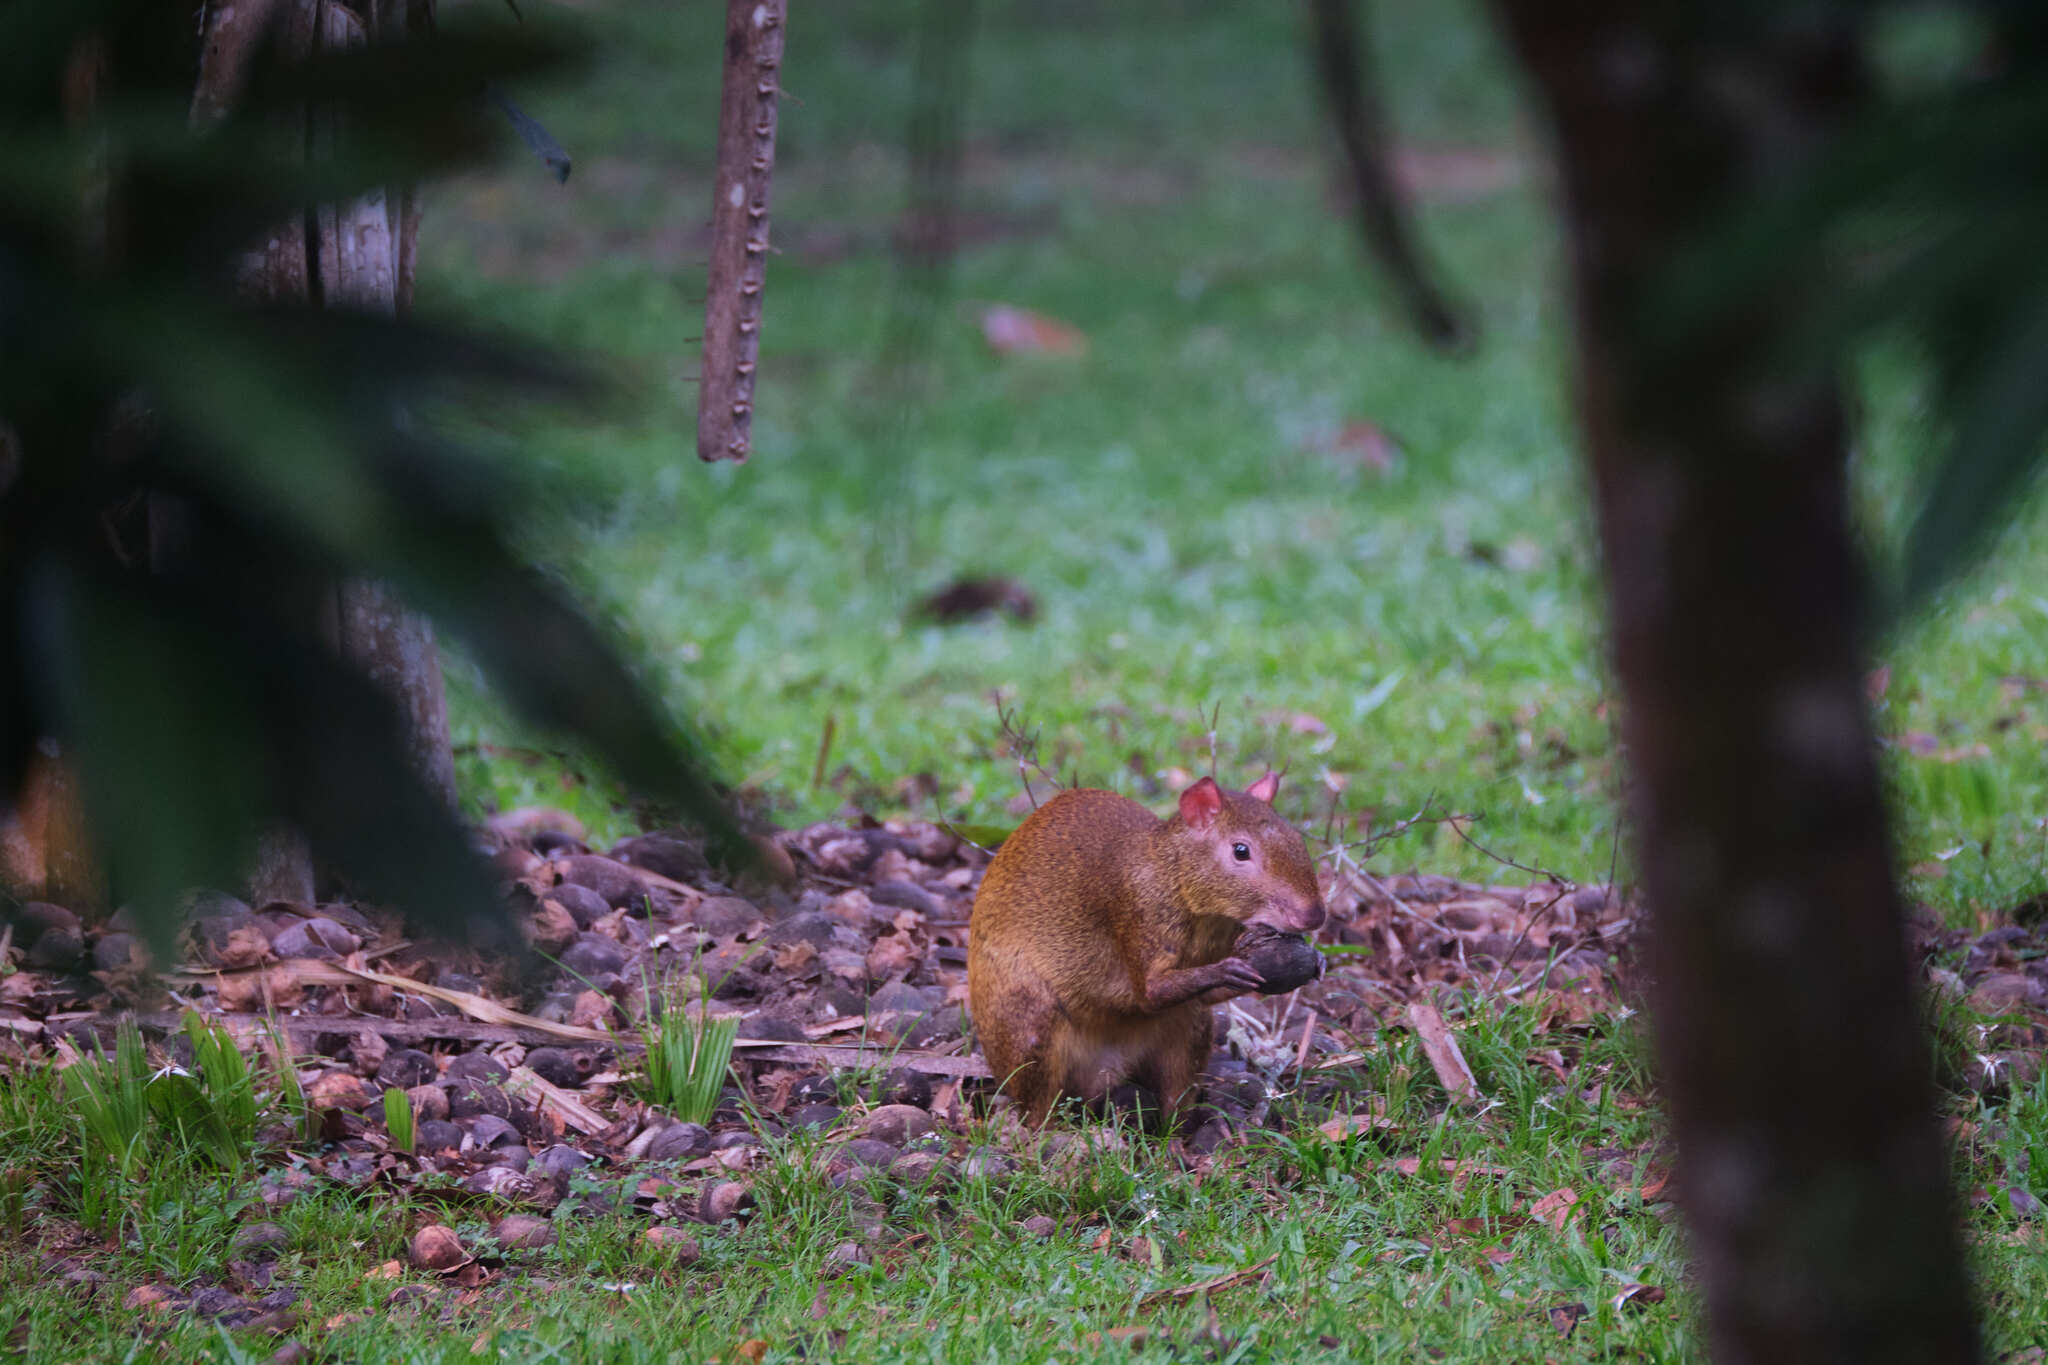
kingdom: Animalia
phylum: Chordata
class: Mammalia
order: Rodentia
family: Dasyproctidae
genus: Dasyprocta
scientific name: Dasyprocta punctata
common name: Central american agouti
